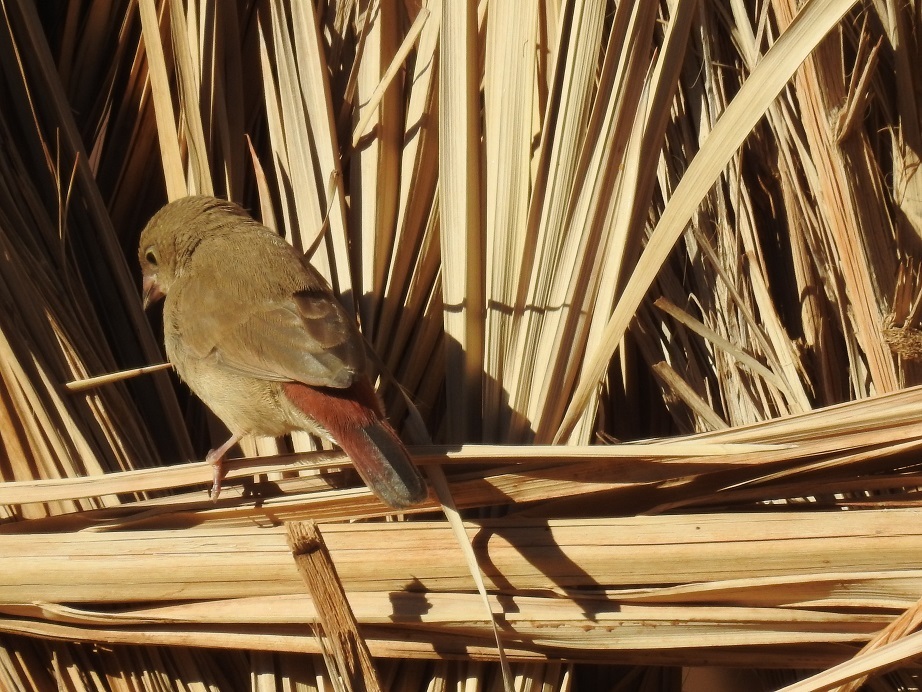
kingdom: Animalia
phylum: Chordata
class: Aves
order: Passeriformes
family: Estrildidae
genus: Lagonosticta
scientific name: Lagonosticta senegala
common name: Red-billed firefinch
